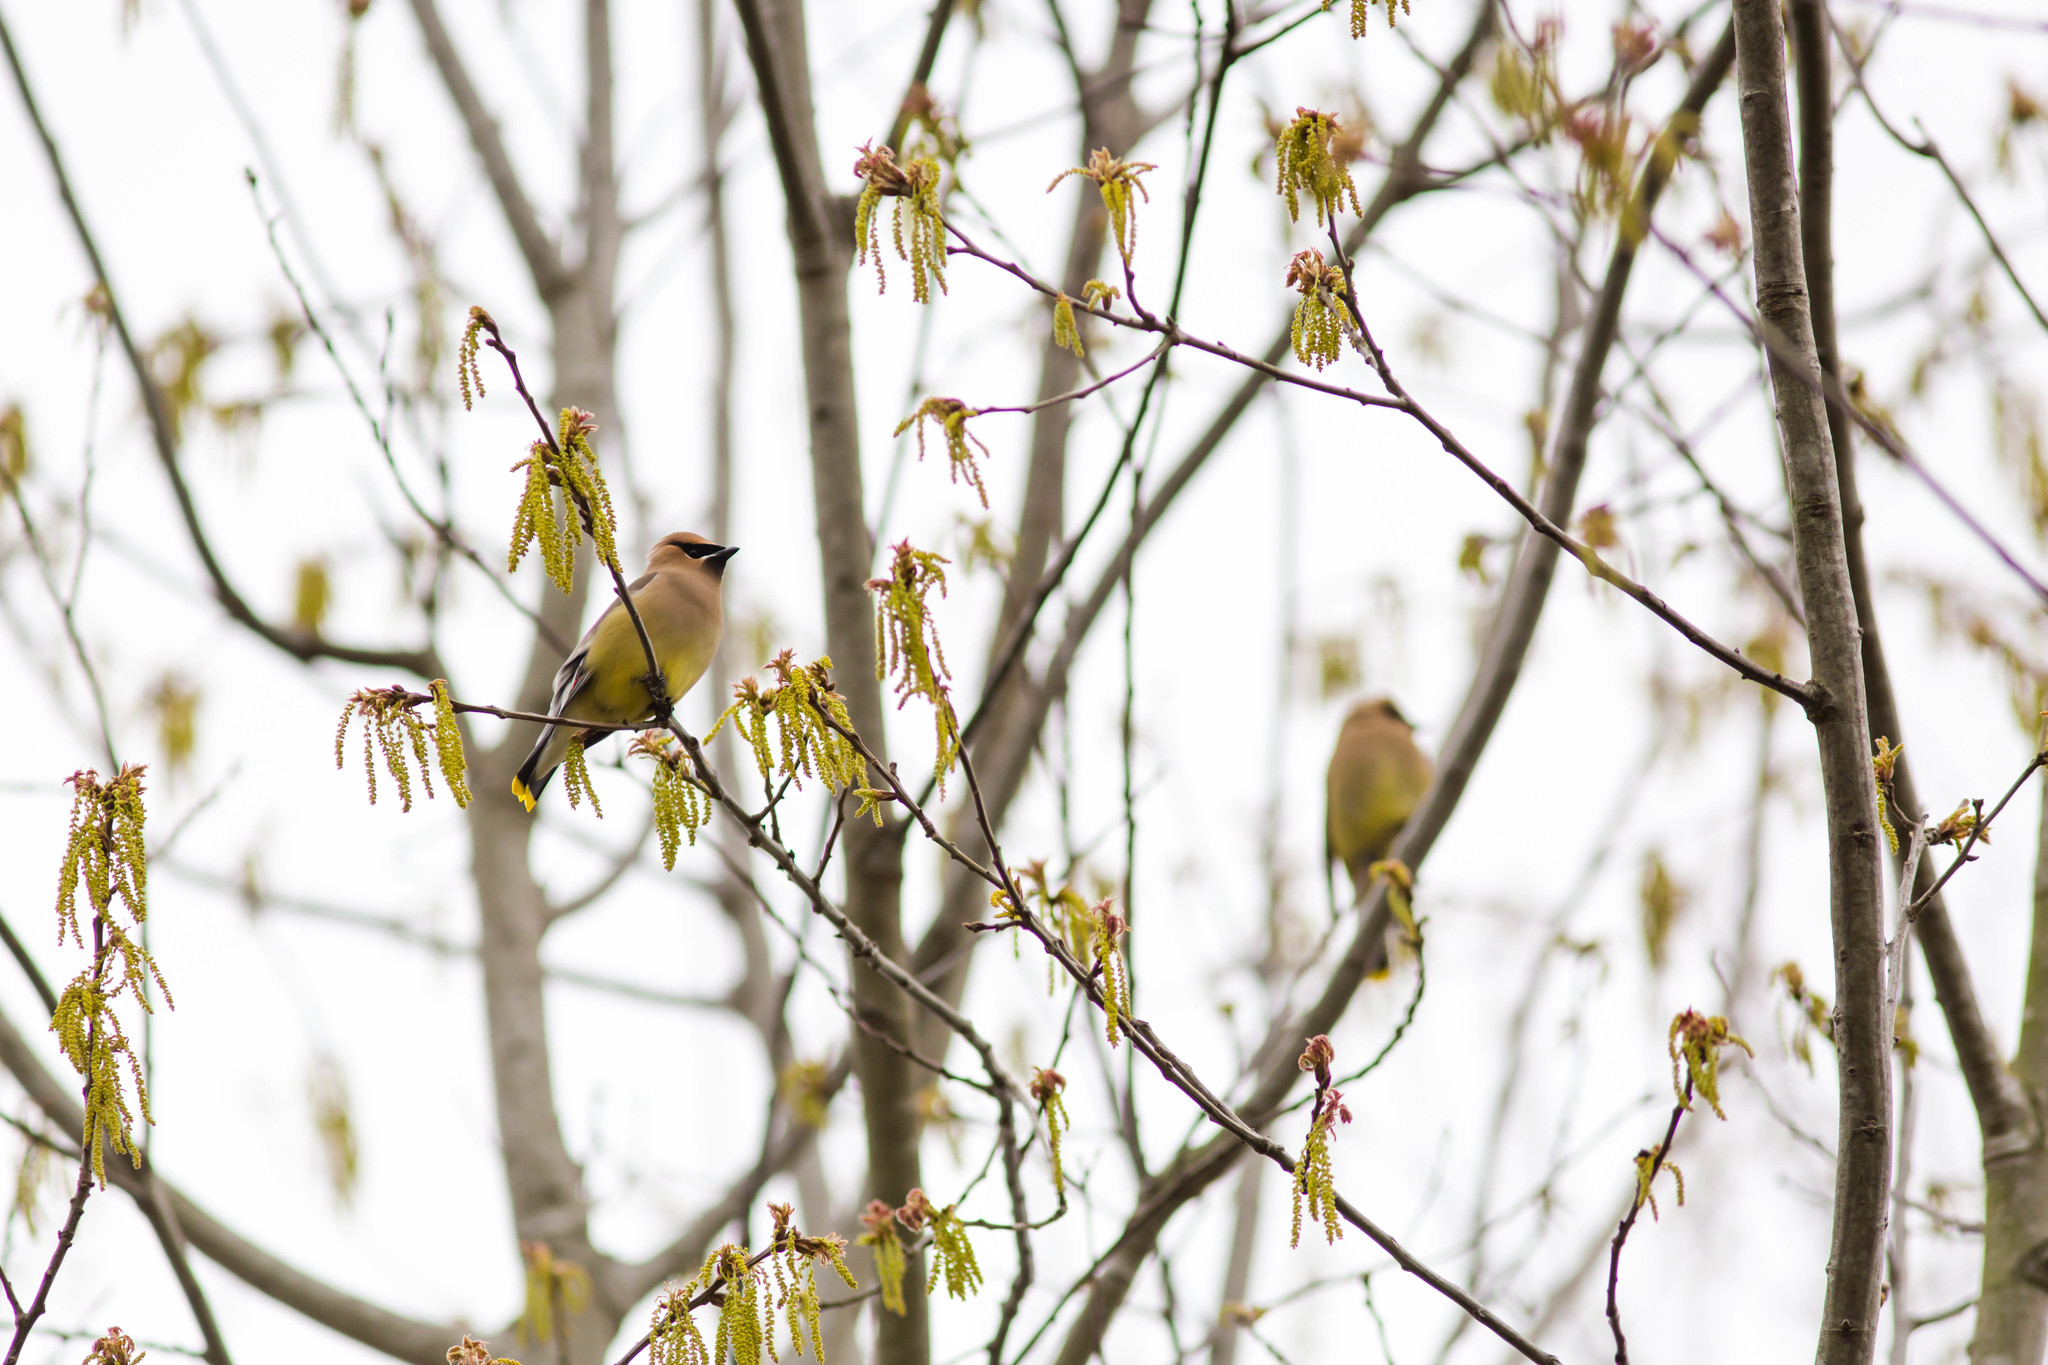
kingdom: Animalia
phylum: Chordata
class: Aves
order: Passeriformes
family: Bombycillidae
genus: Bombycilla
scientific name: Bombycilla cedrorum
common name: Cedar waxwing
